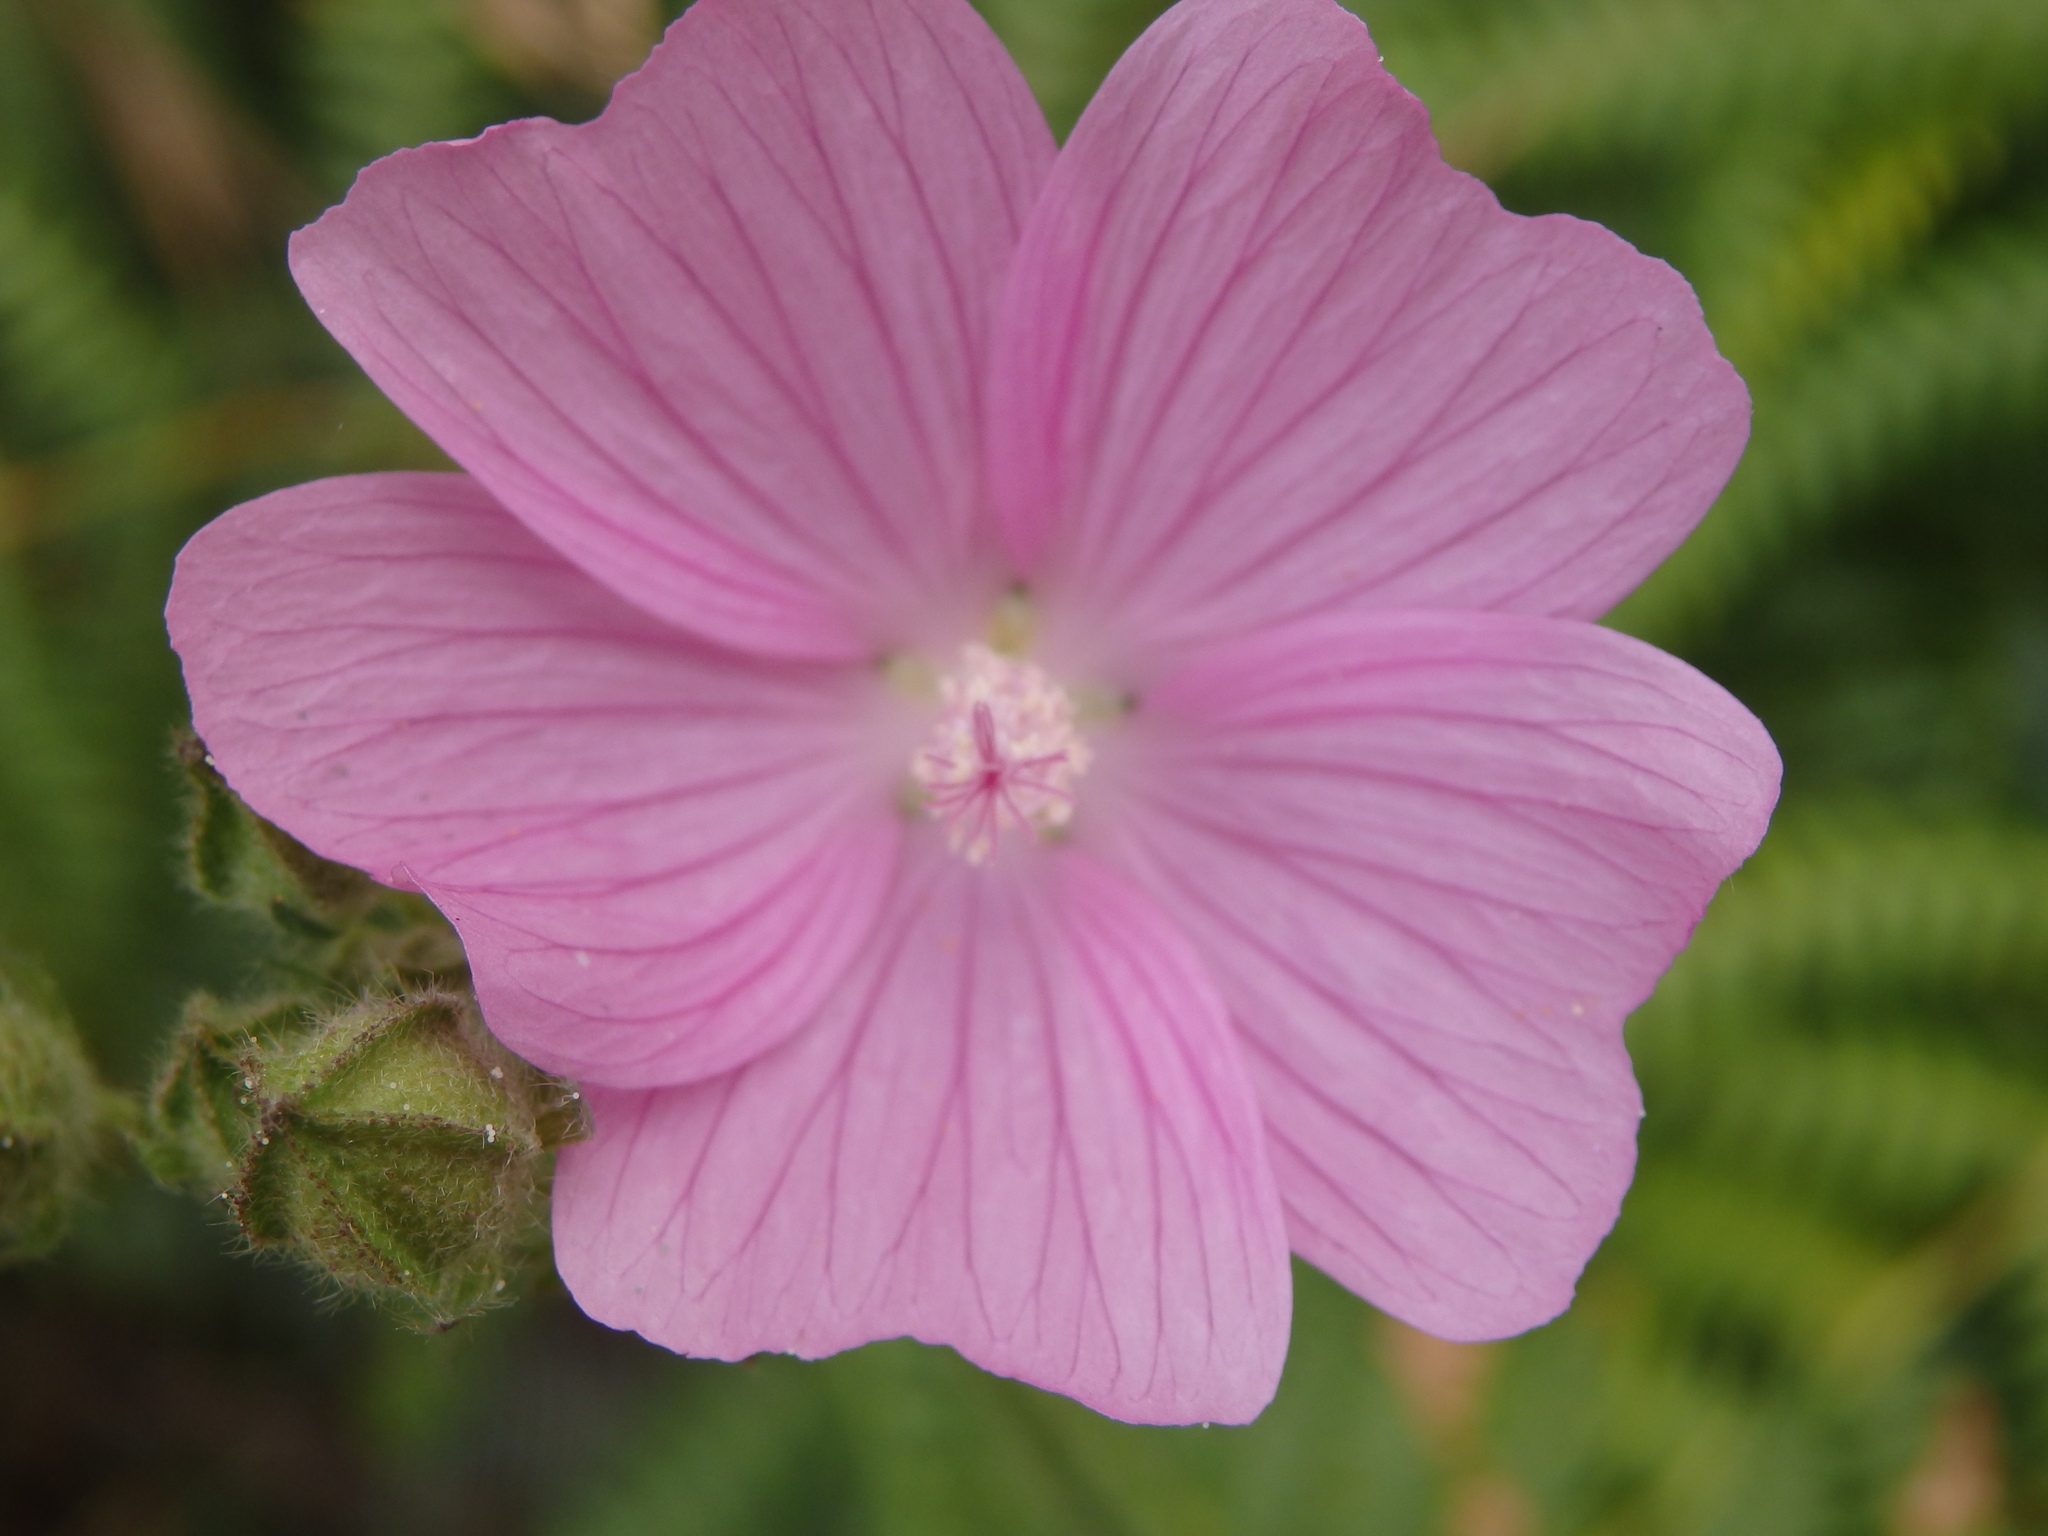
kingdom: Plantae
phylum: Tracheophyta
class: Magnoliopsida
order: Malvales
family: Malvaceae
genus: Malva
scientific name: Malva tournefortiana
